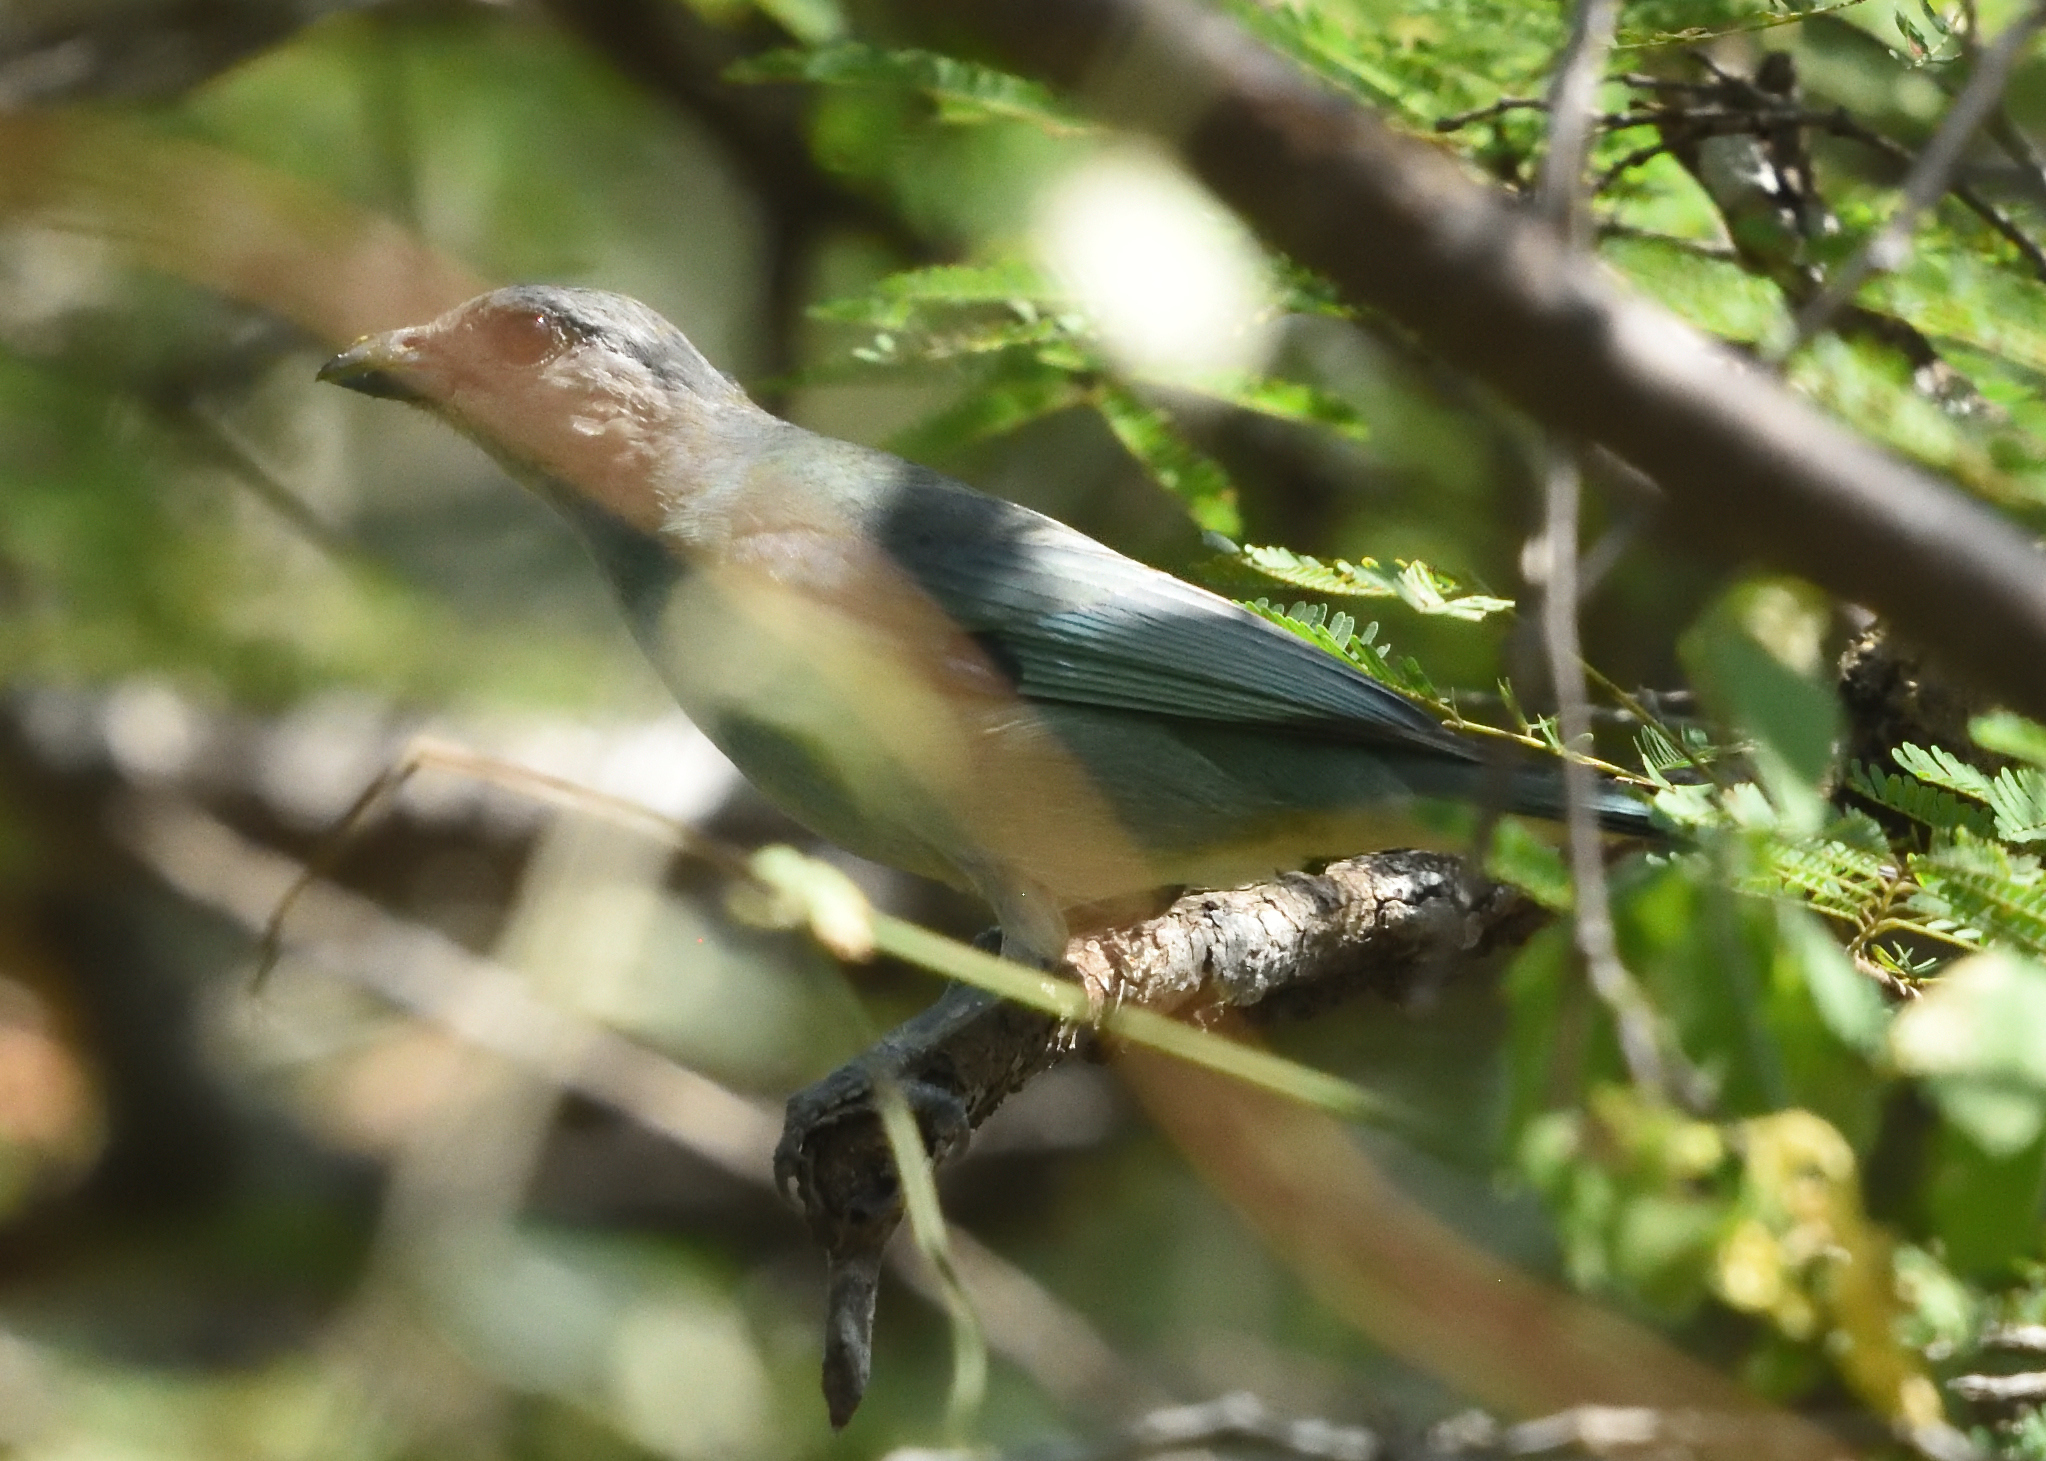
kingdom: Animalia
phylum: Chordata
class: Aves
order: Passeriformes
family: Thraupidae
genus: Thraupis
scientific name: Thraupis glaucocolpa
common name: Glaucous tanager
